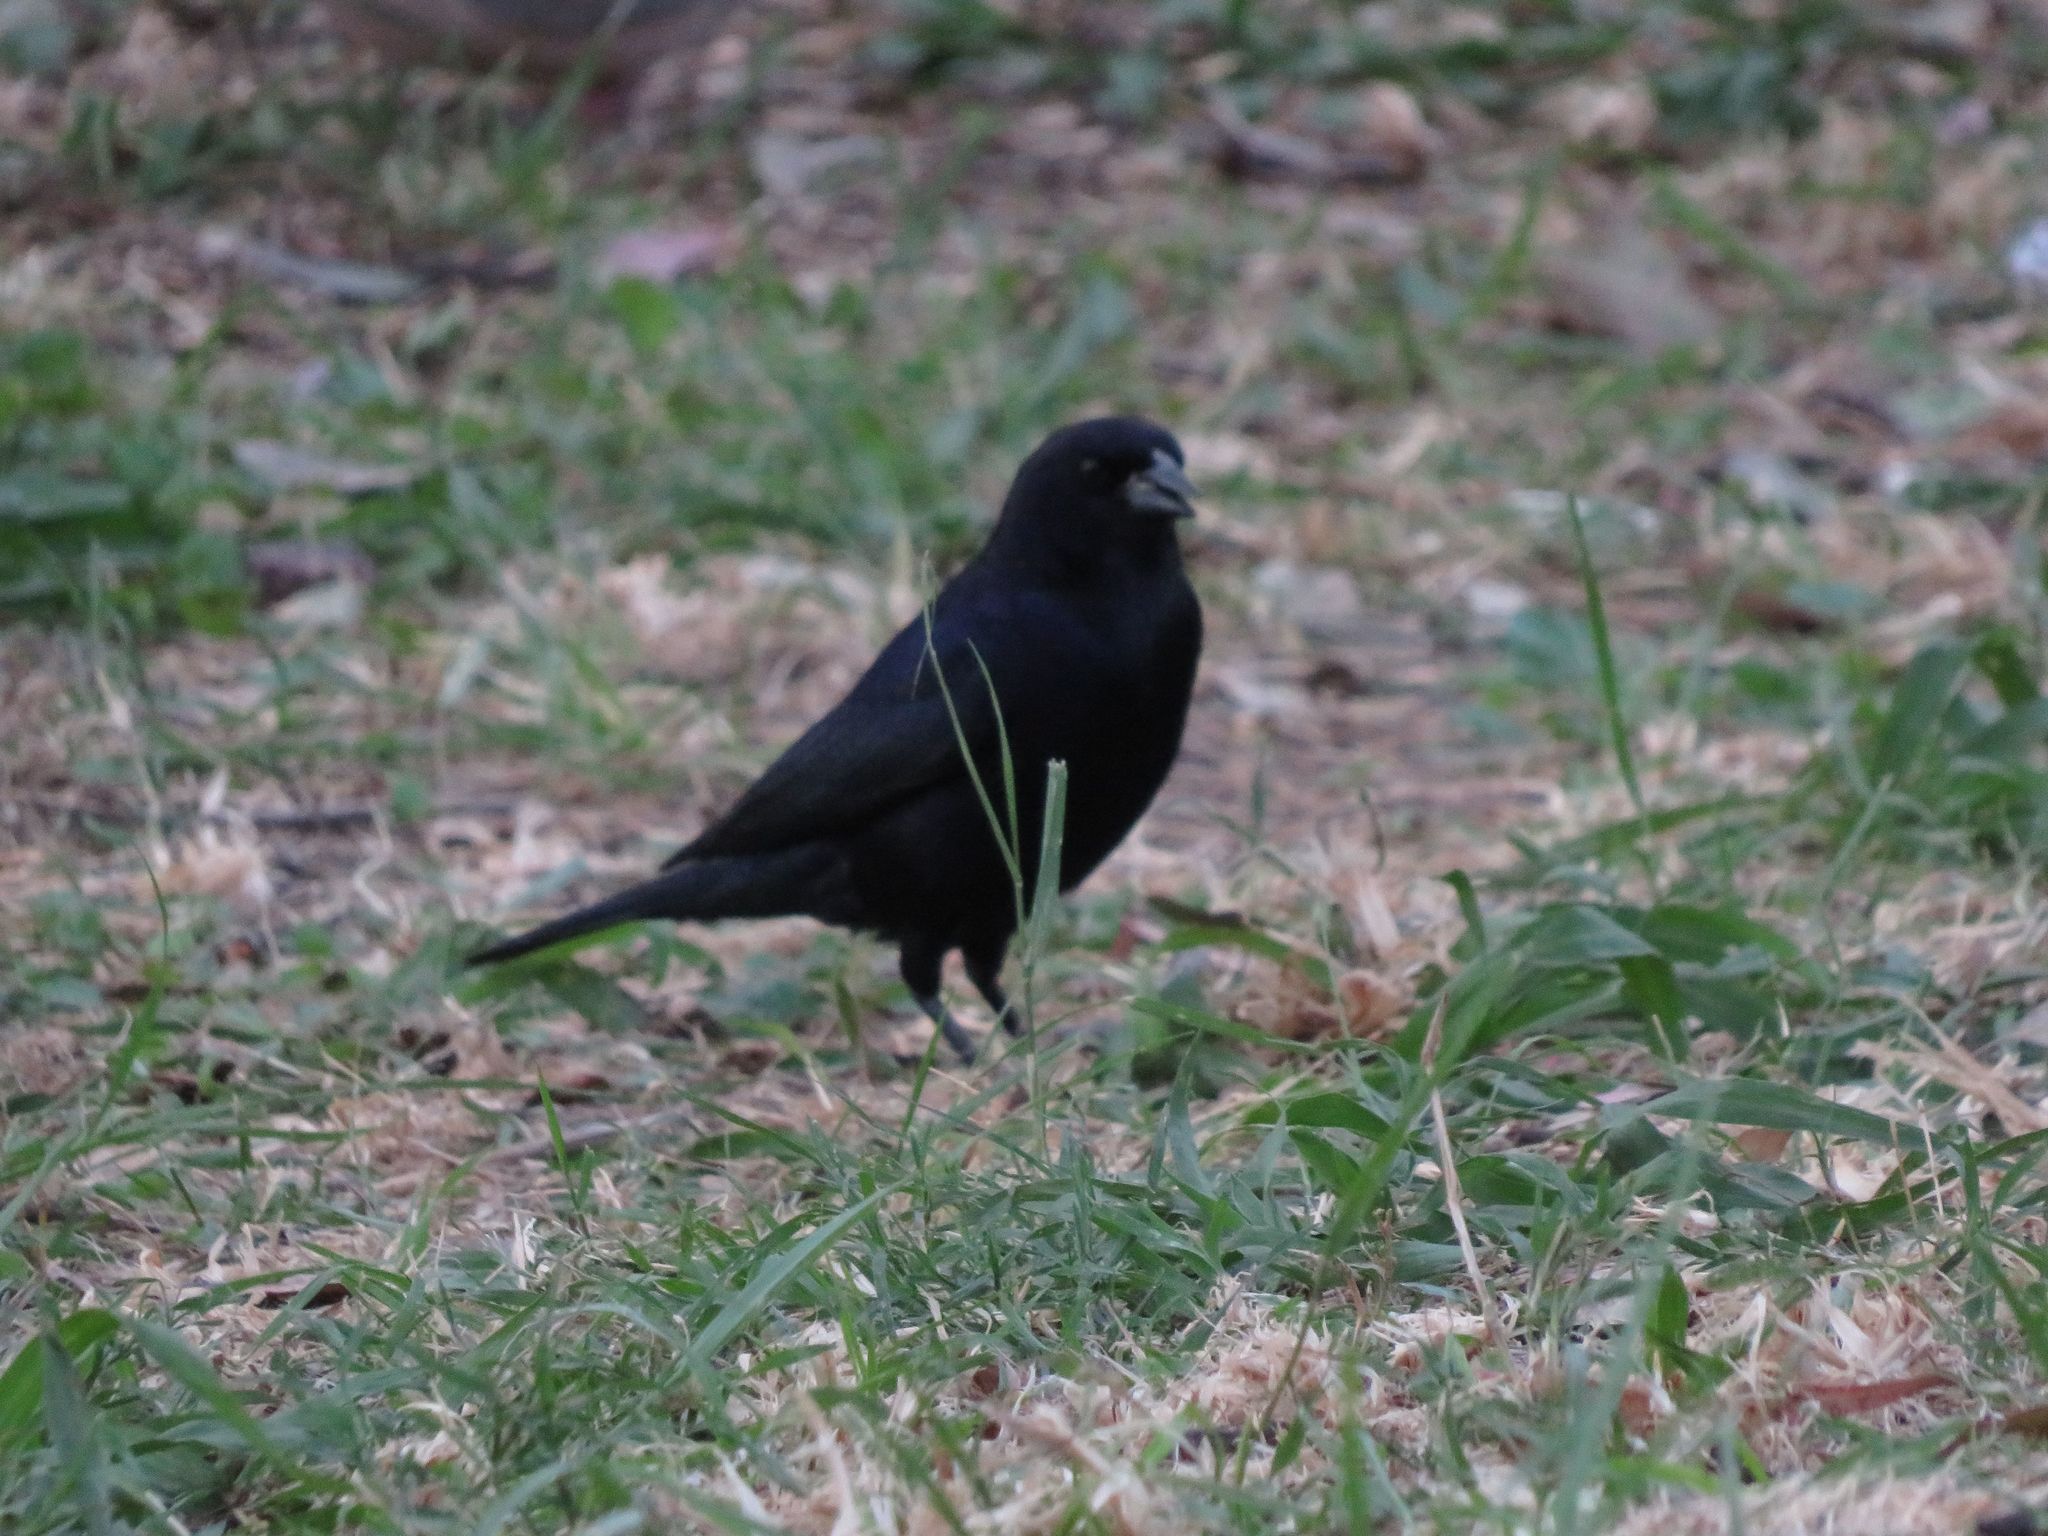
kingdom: Animalia
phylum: Chordata
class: Aves
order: Passeriformes
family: Icteridae
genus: Molothrus
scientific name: Molothrus bonariensis
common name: Shiny cowbird
